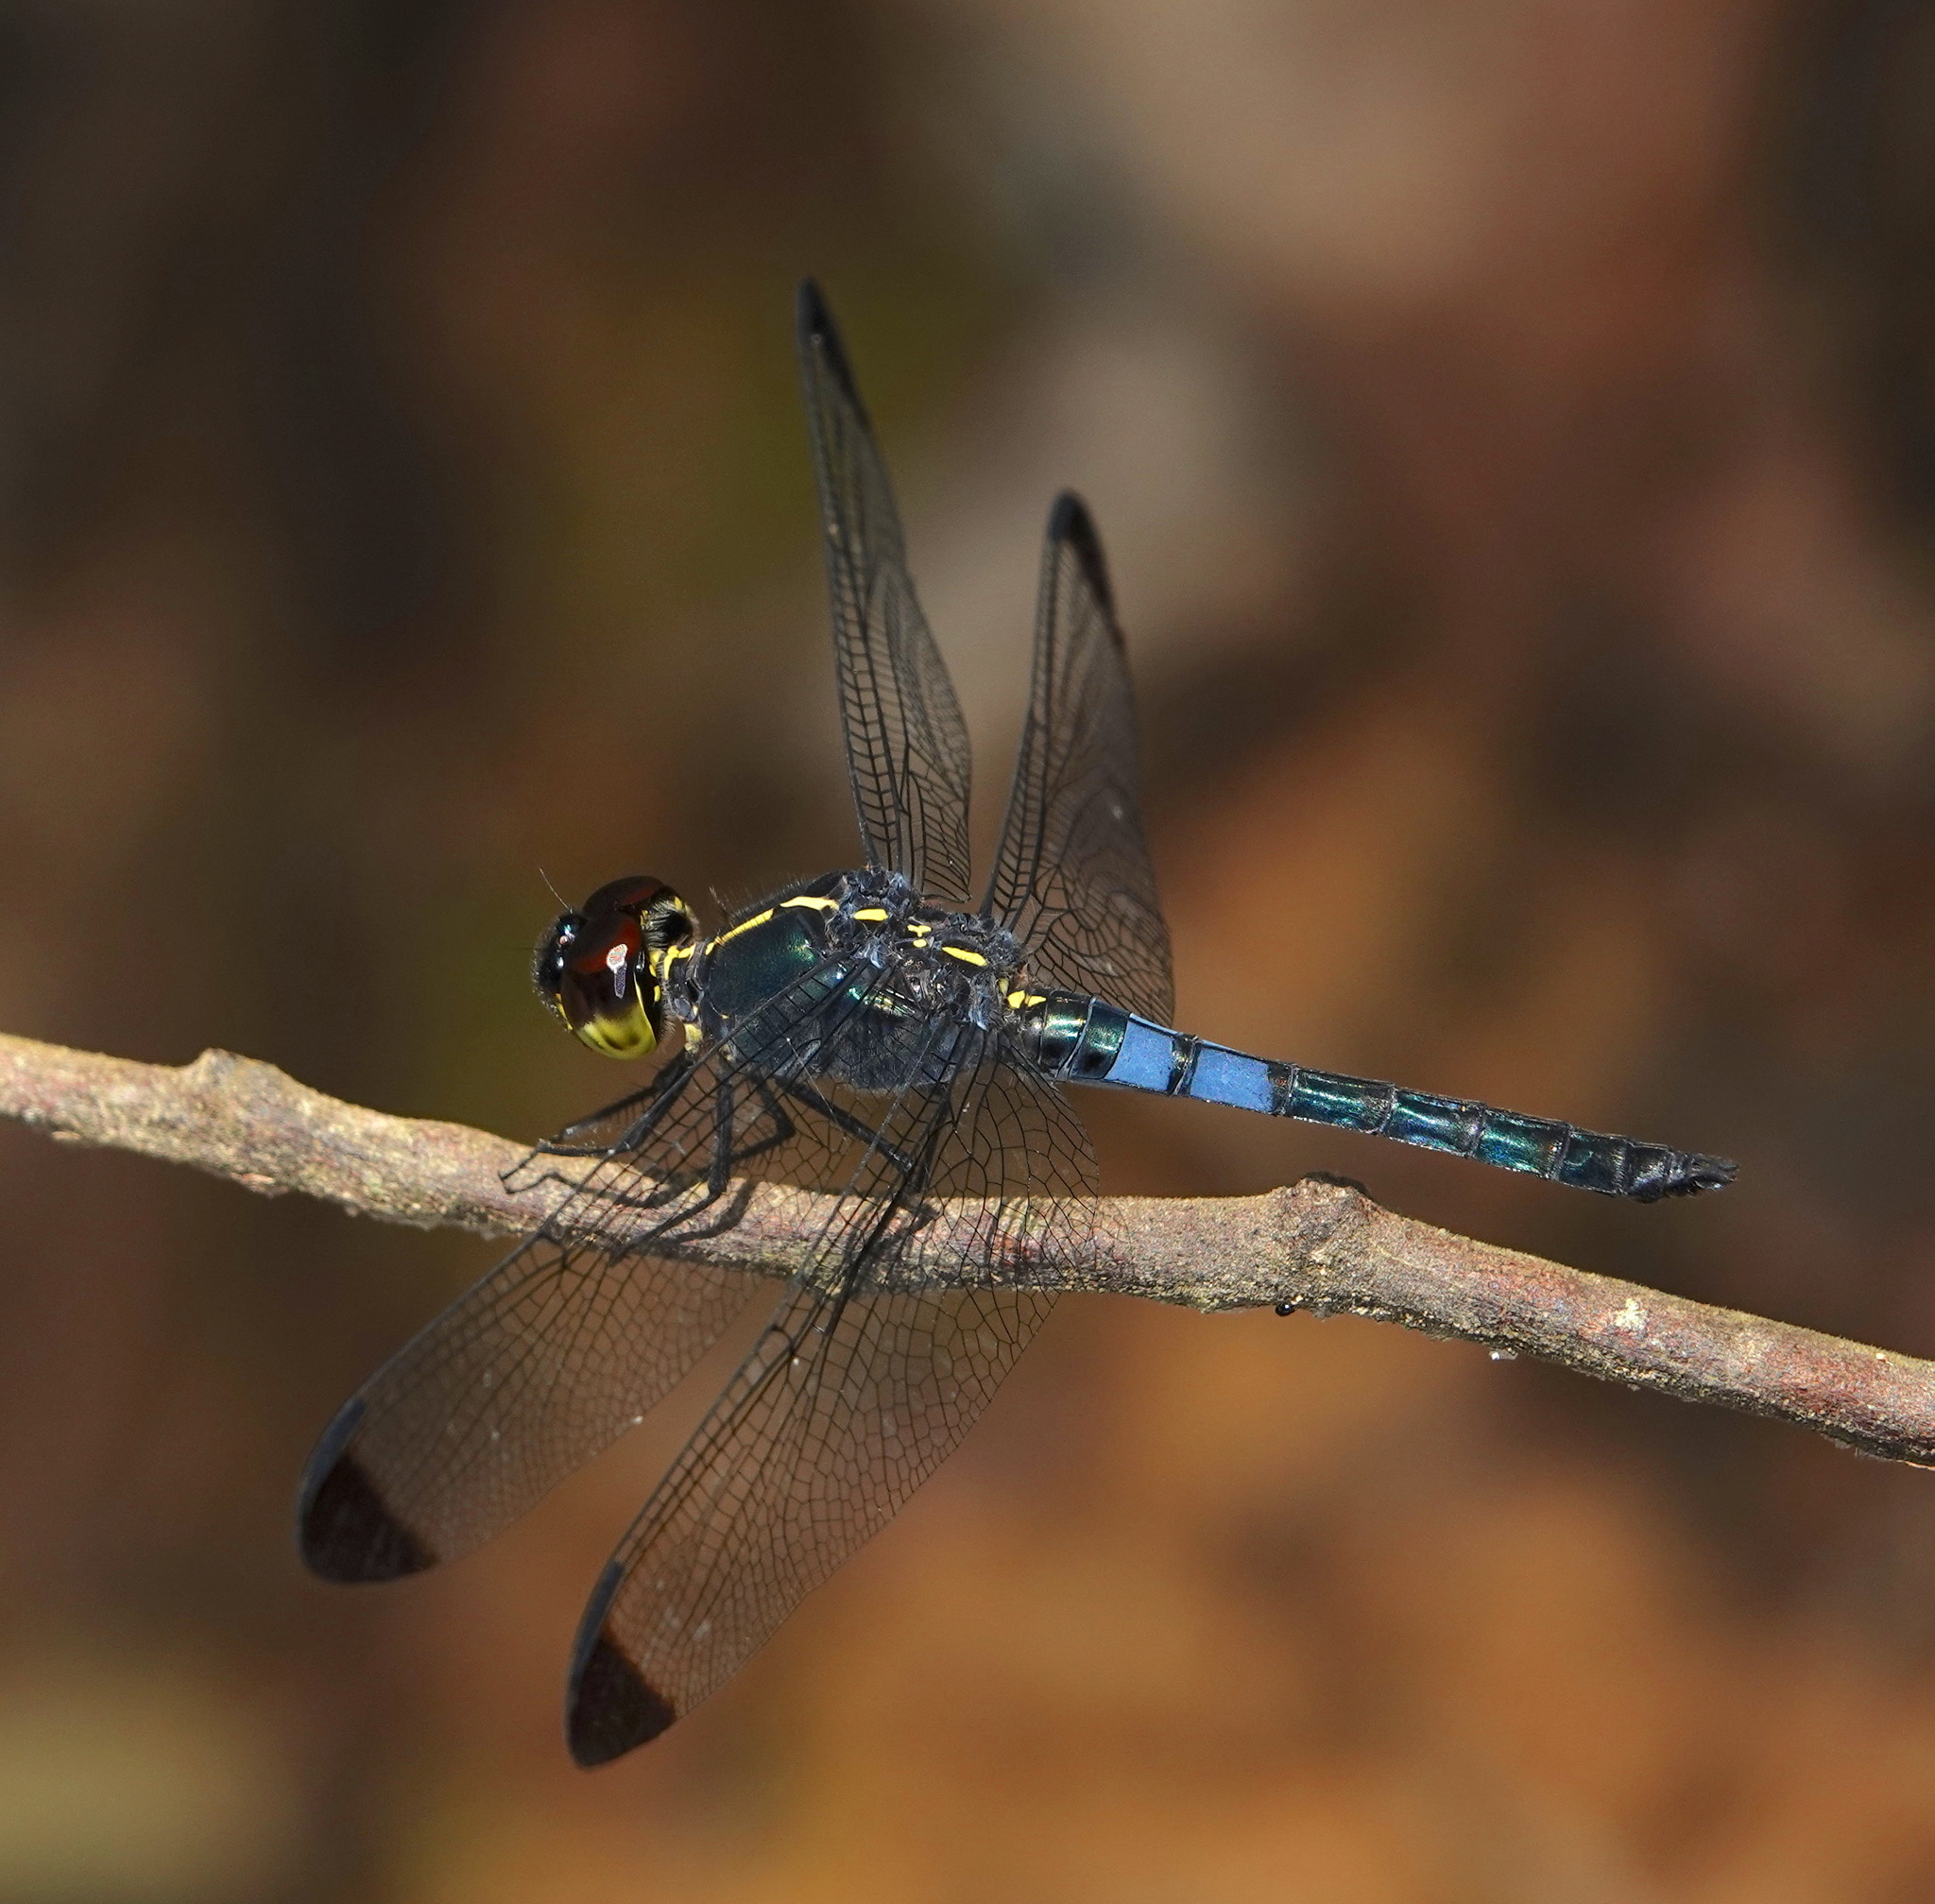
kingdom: Animalia
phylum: Arthropoda
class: Insecta
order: Odonata
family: Libellulidae
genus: Cratilla
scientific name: Cratilla metallica
